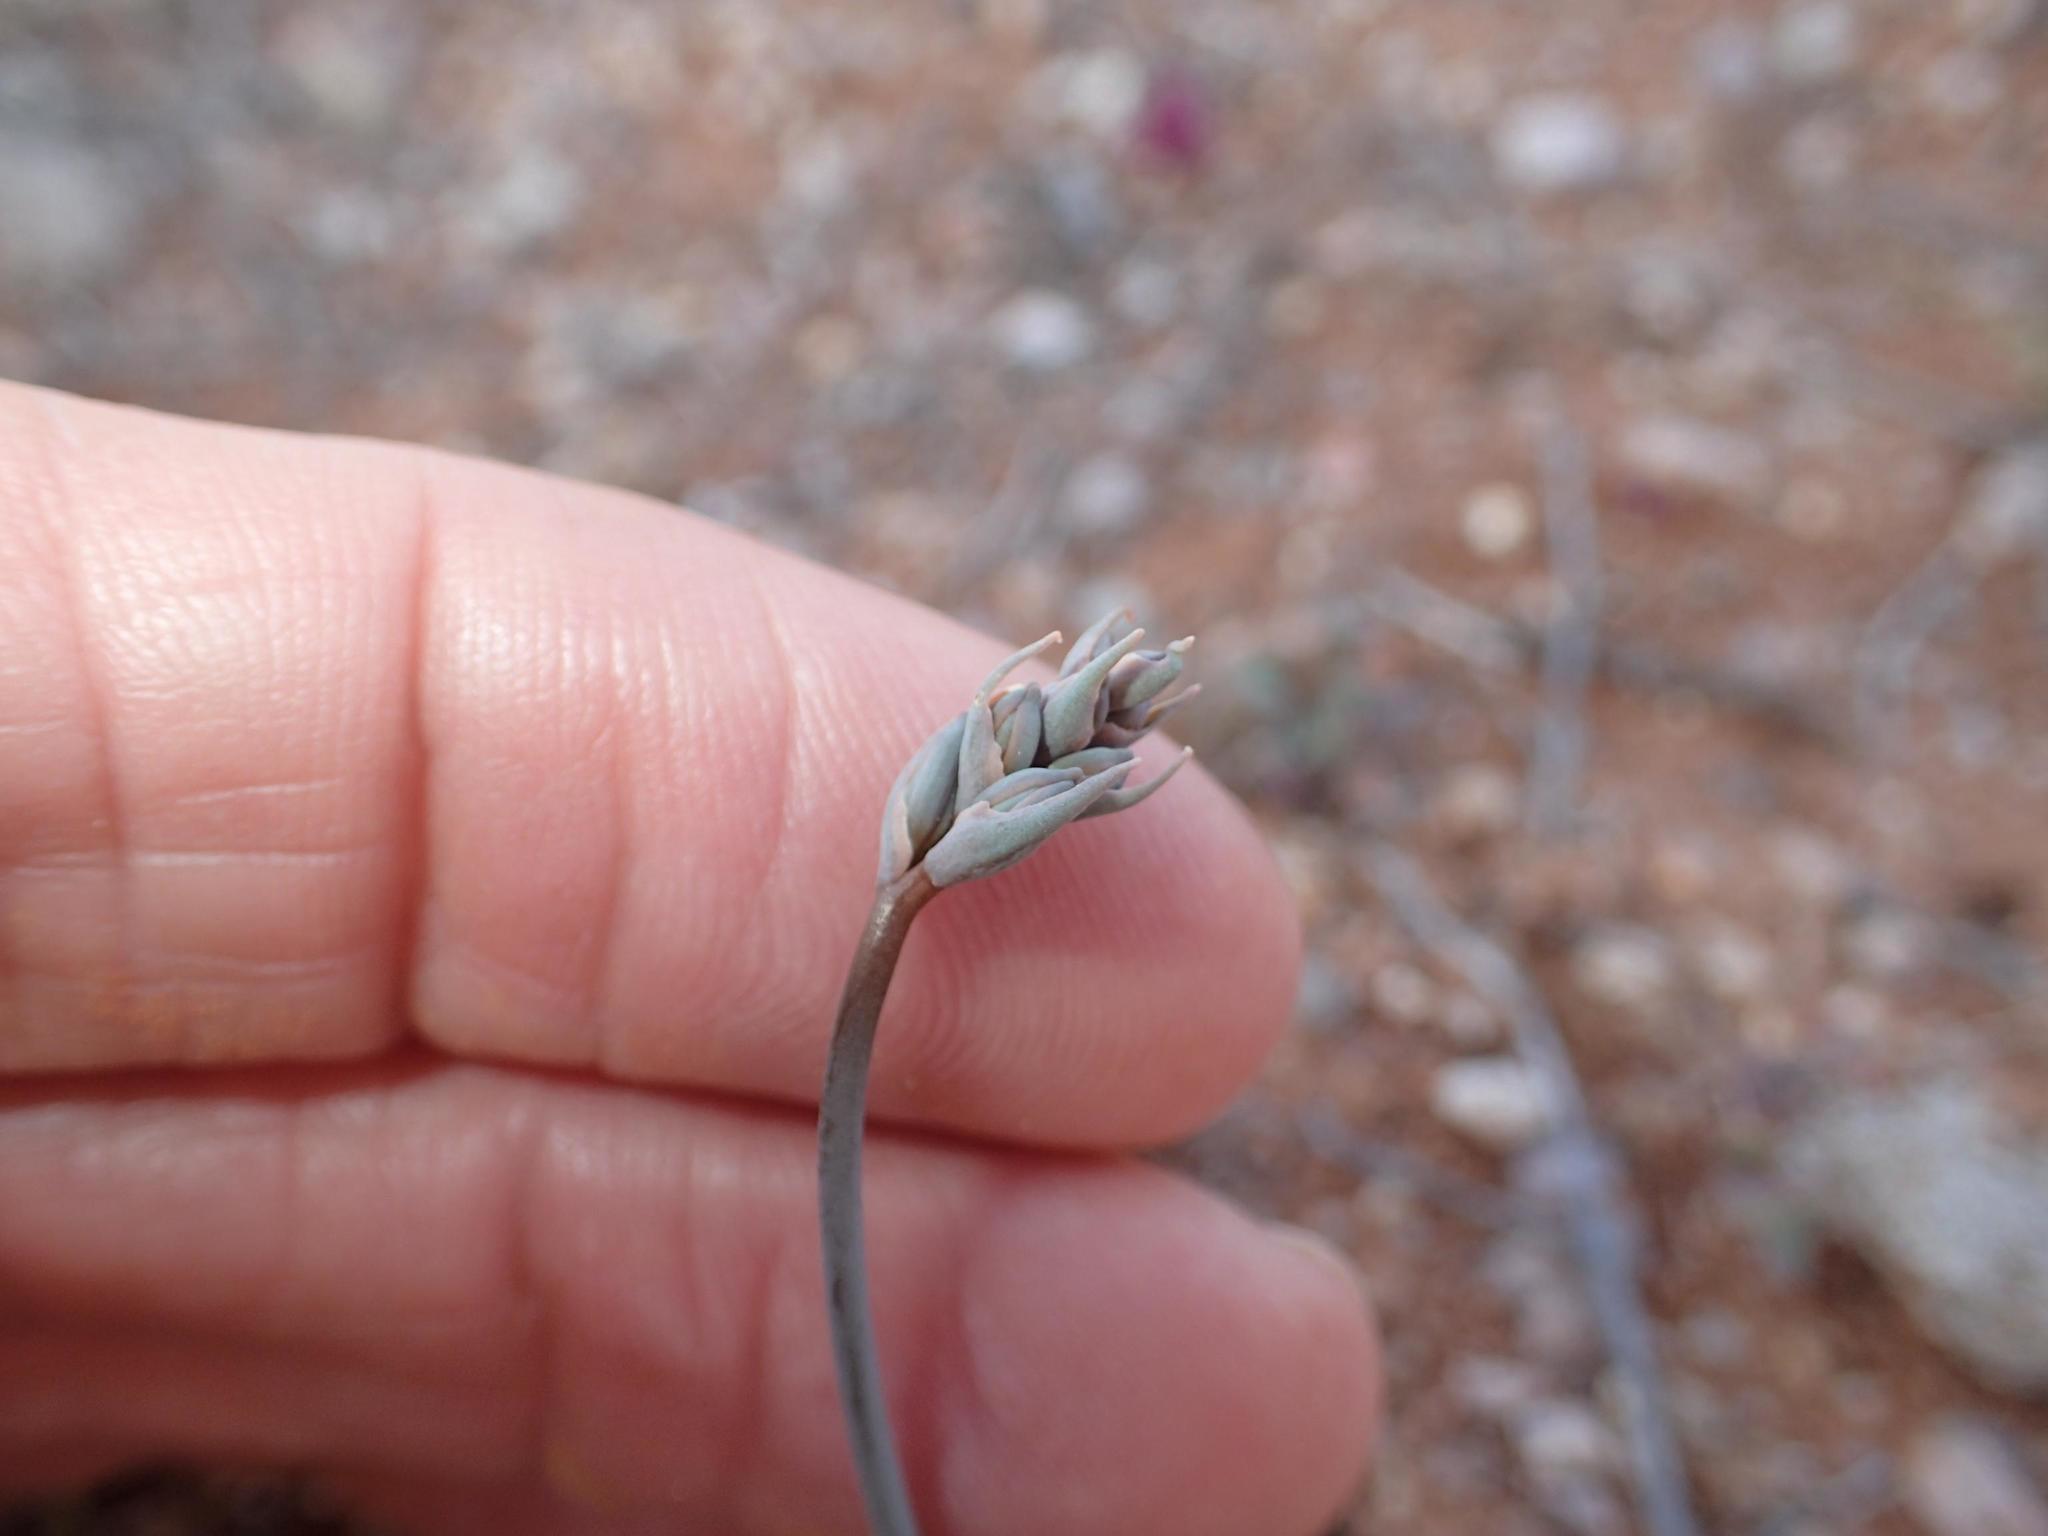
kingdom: Plantae
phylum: Tracheophyta
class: Liliopsida
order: Asparagales
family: Asparagaceae
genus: Dipcadi
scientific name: Dipcadi crispum
